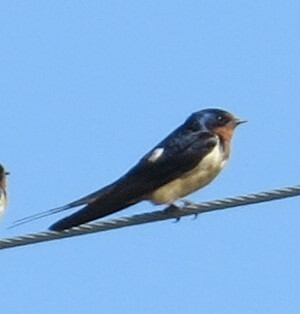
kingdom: Animalia
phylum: Chordata
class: Aves
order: Passeriformes
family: Hirundinidae
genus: Hirundo
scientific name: Hirundo rustica
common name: Barn swallow
